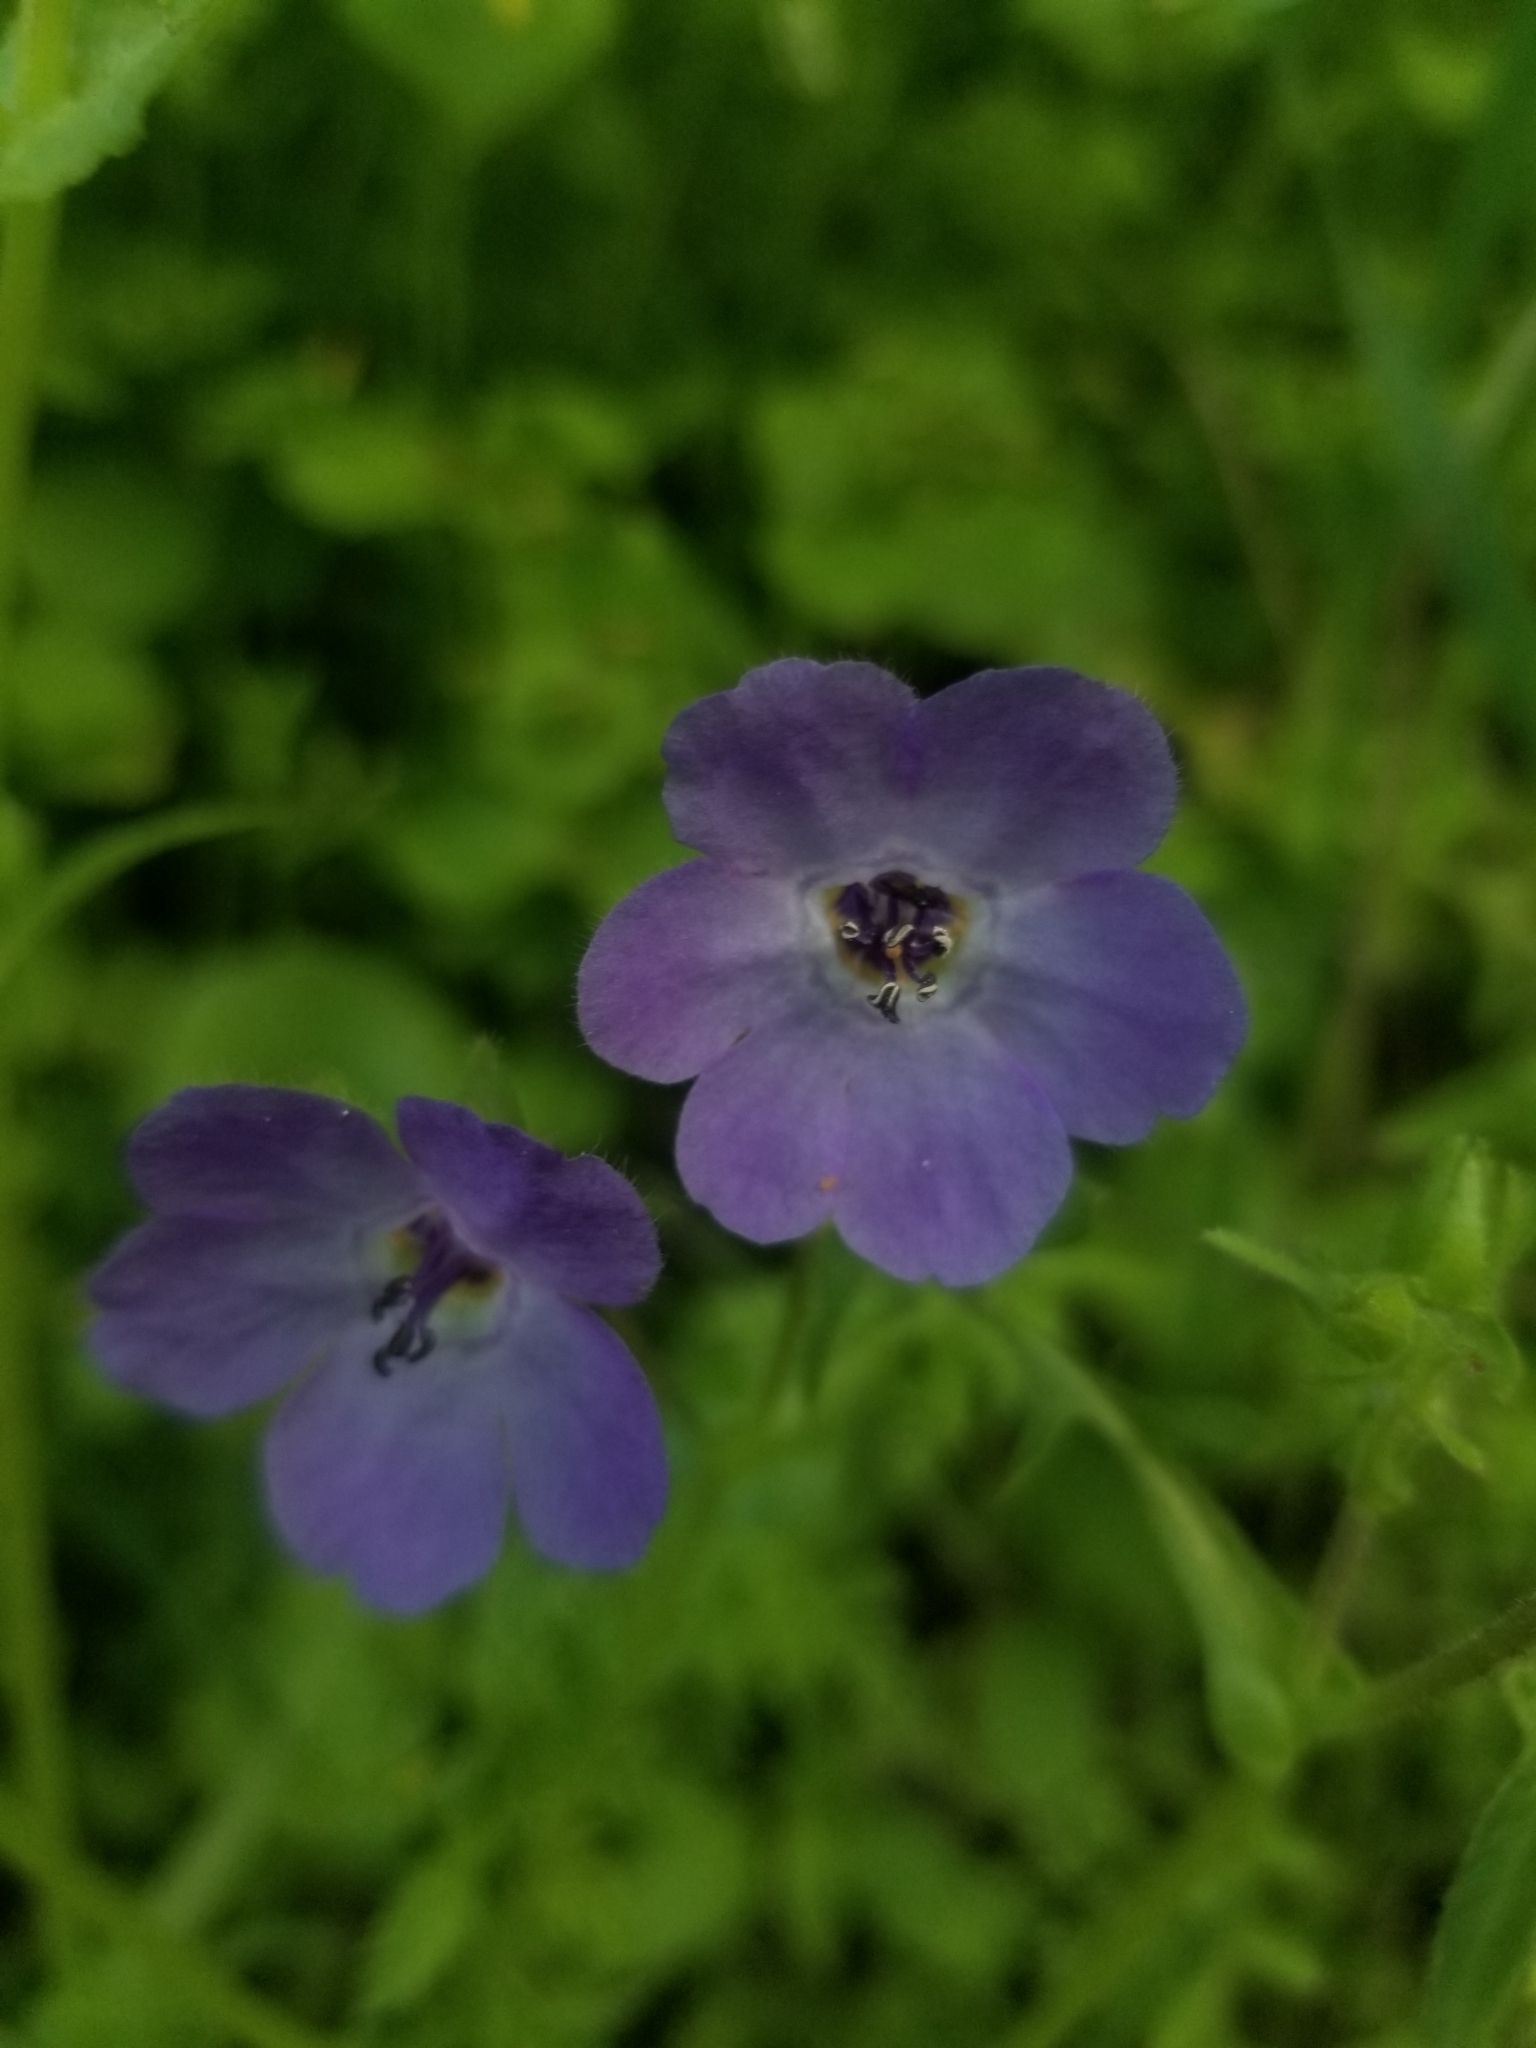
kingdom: Plantae
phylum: Tracheophyta
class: Magnoliopsida
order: Boraginales
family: Hydrophyllaceae
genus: Pholistoma
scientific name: Pholistoma auritum
